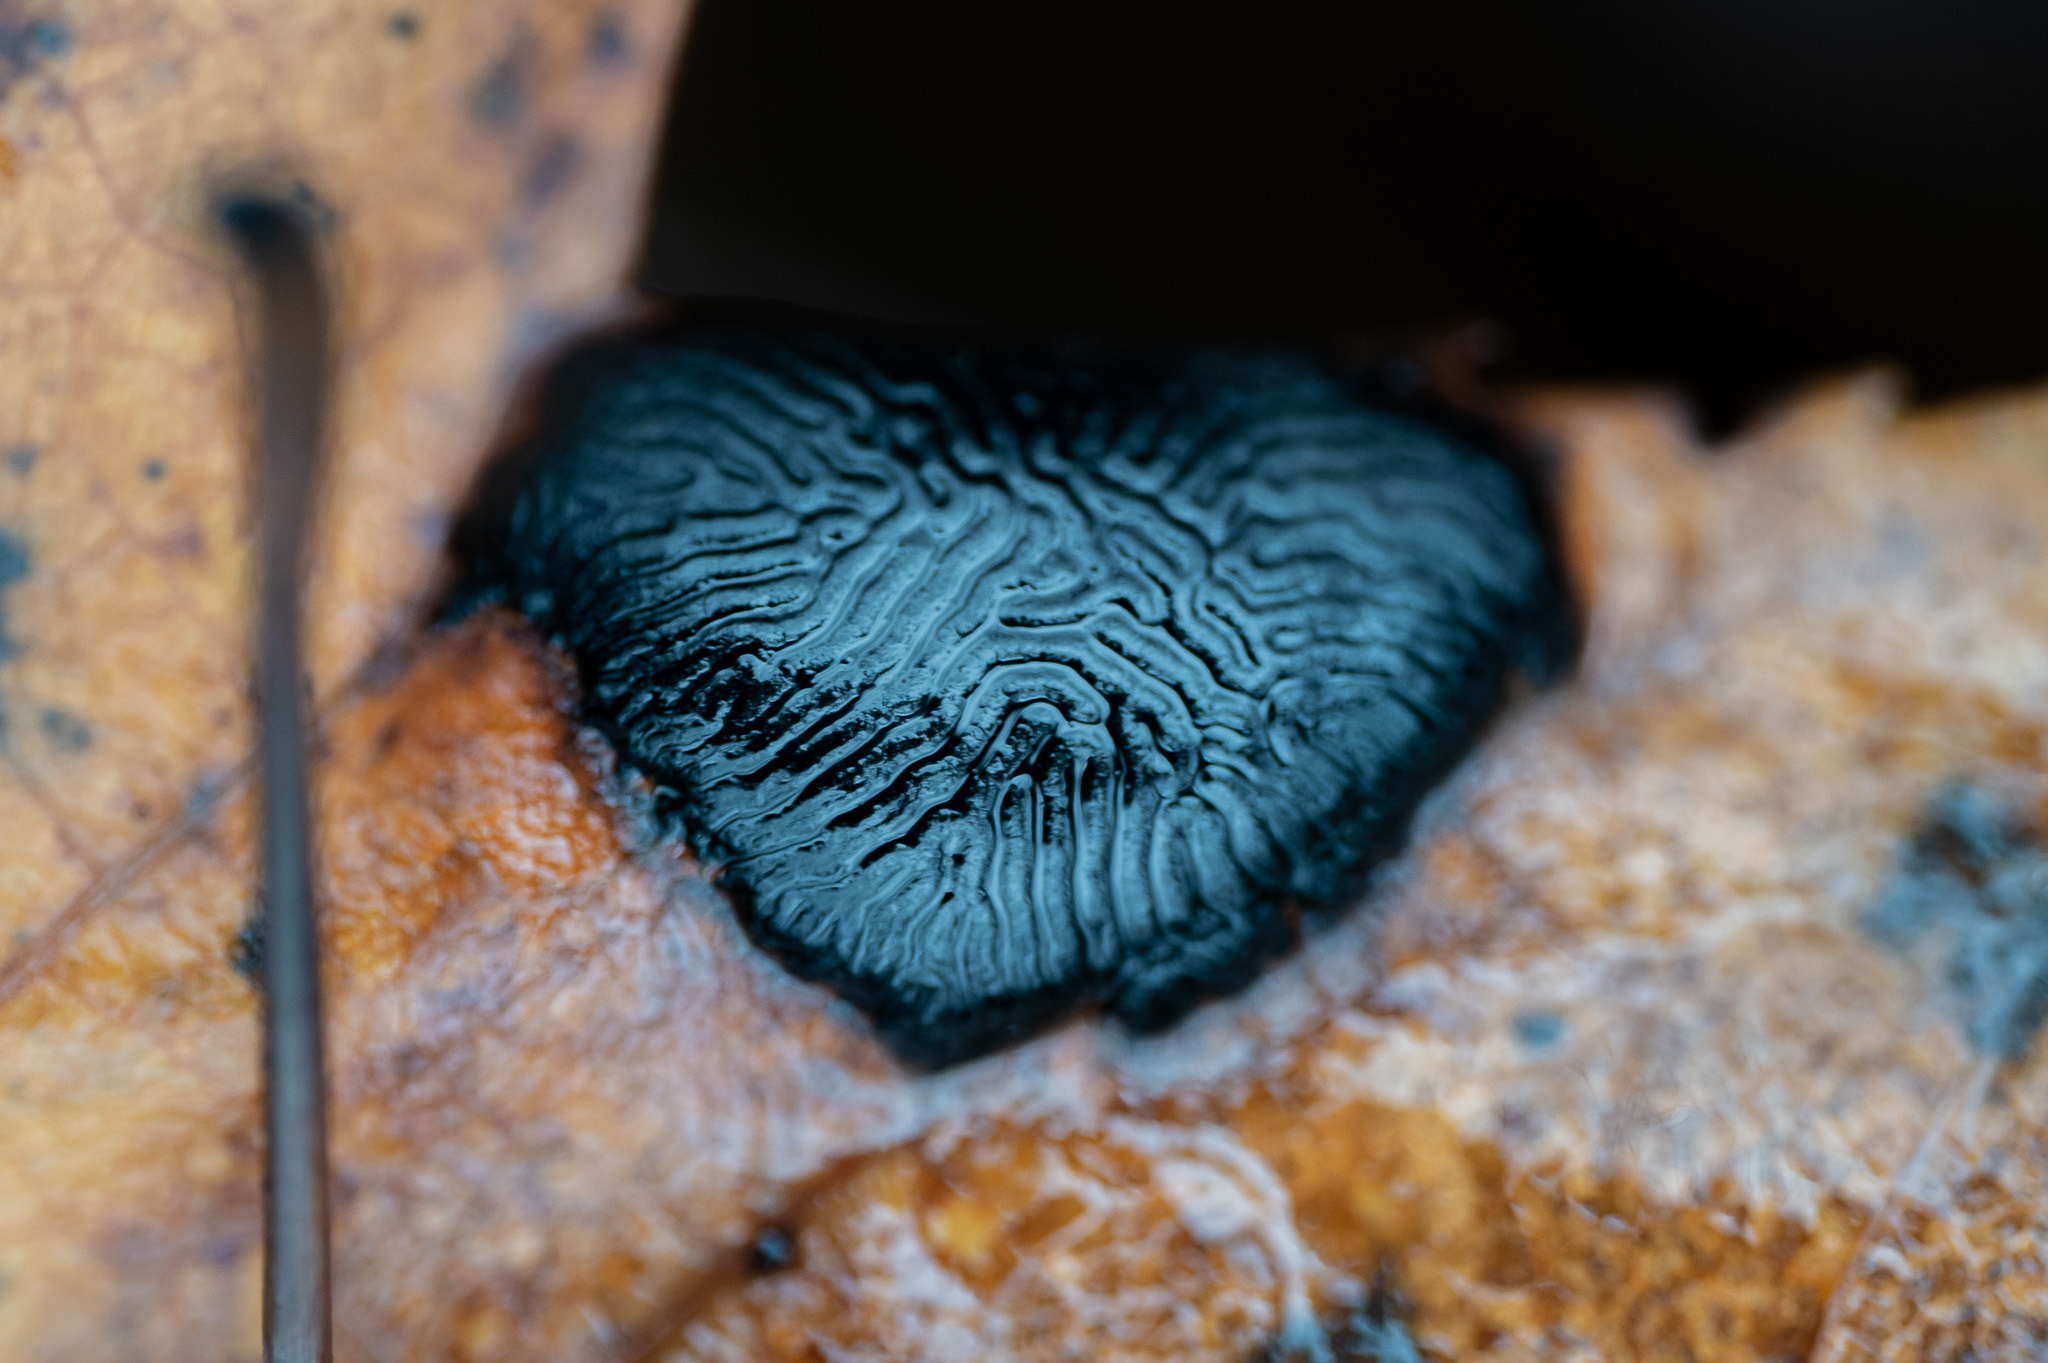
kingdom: Fungi
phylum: Ascomycota
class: Leotiomycetes
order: Rhytismatales
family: Rhytismataceae
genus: Rhytisma
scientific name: Rhytisma americanum
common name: American tar spot
